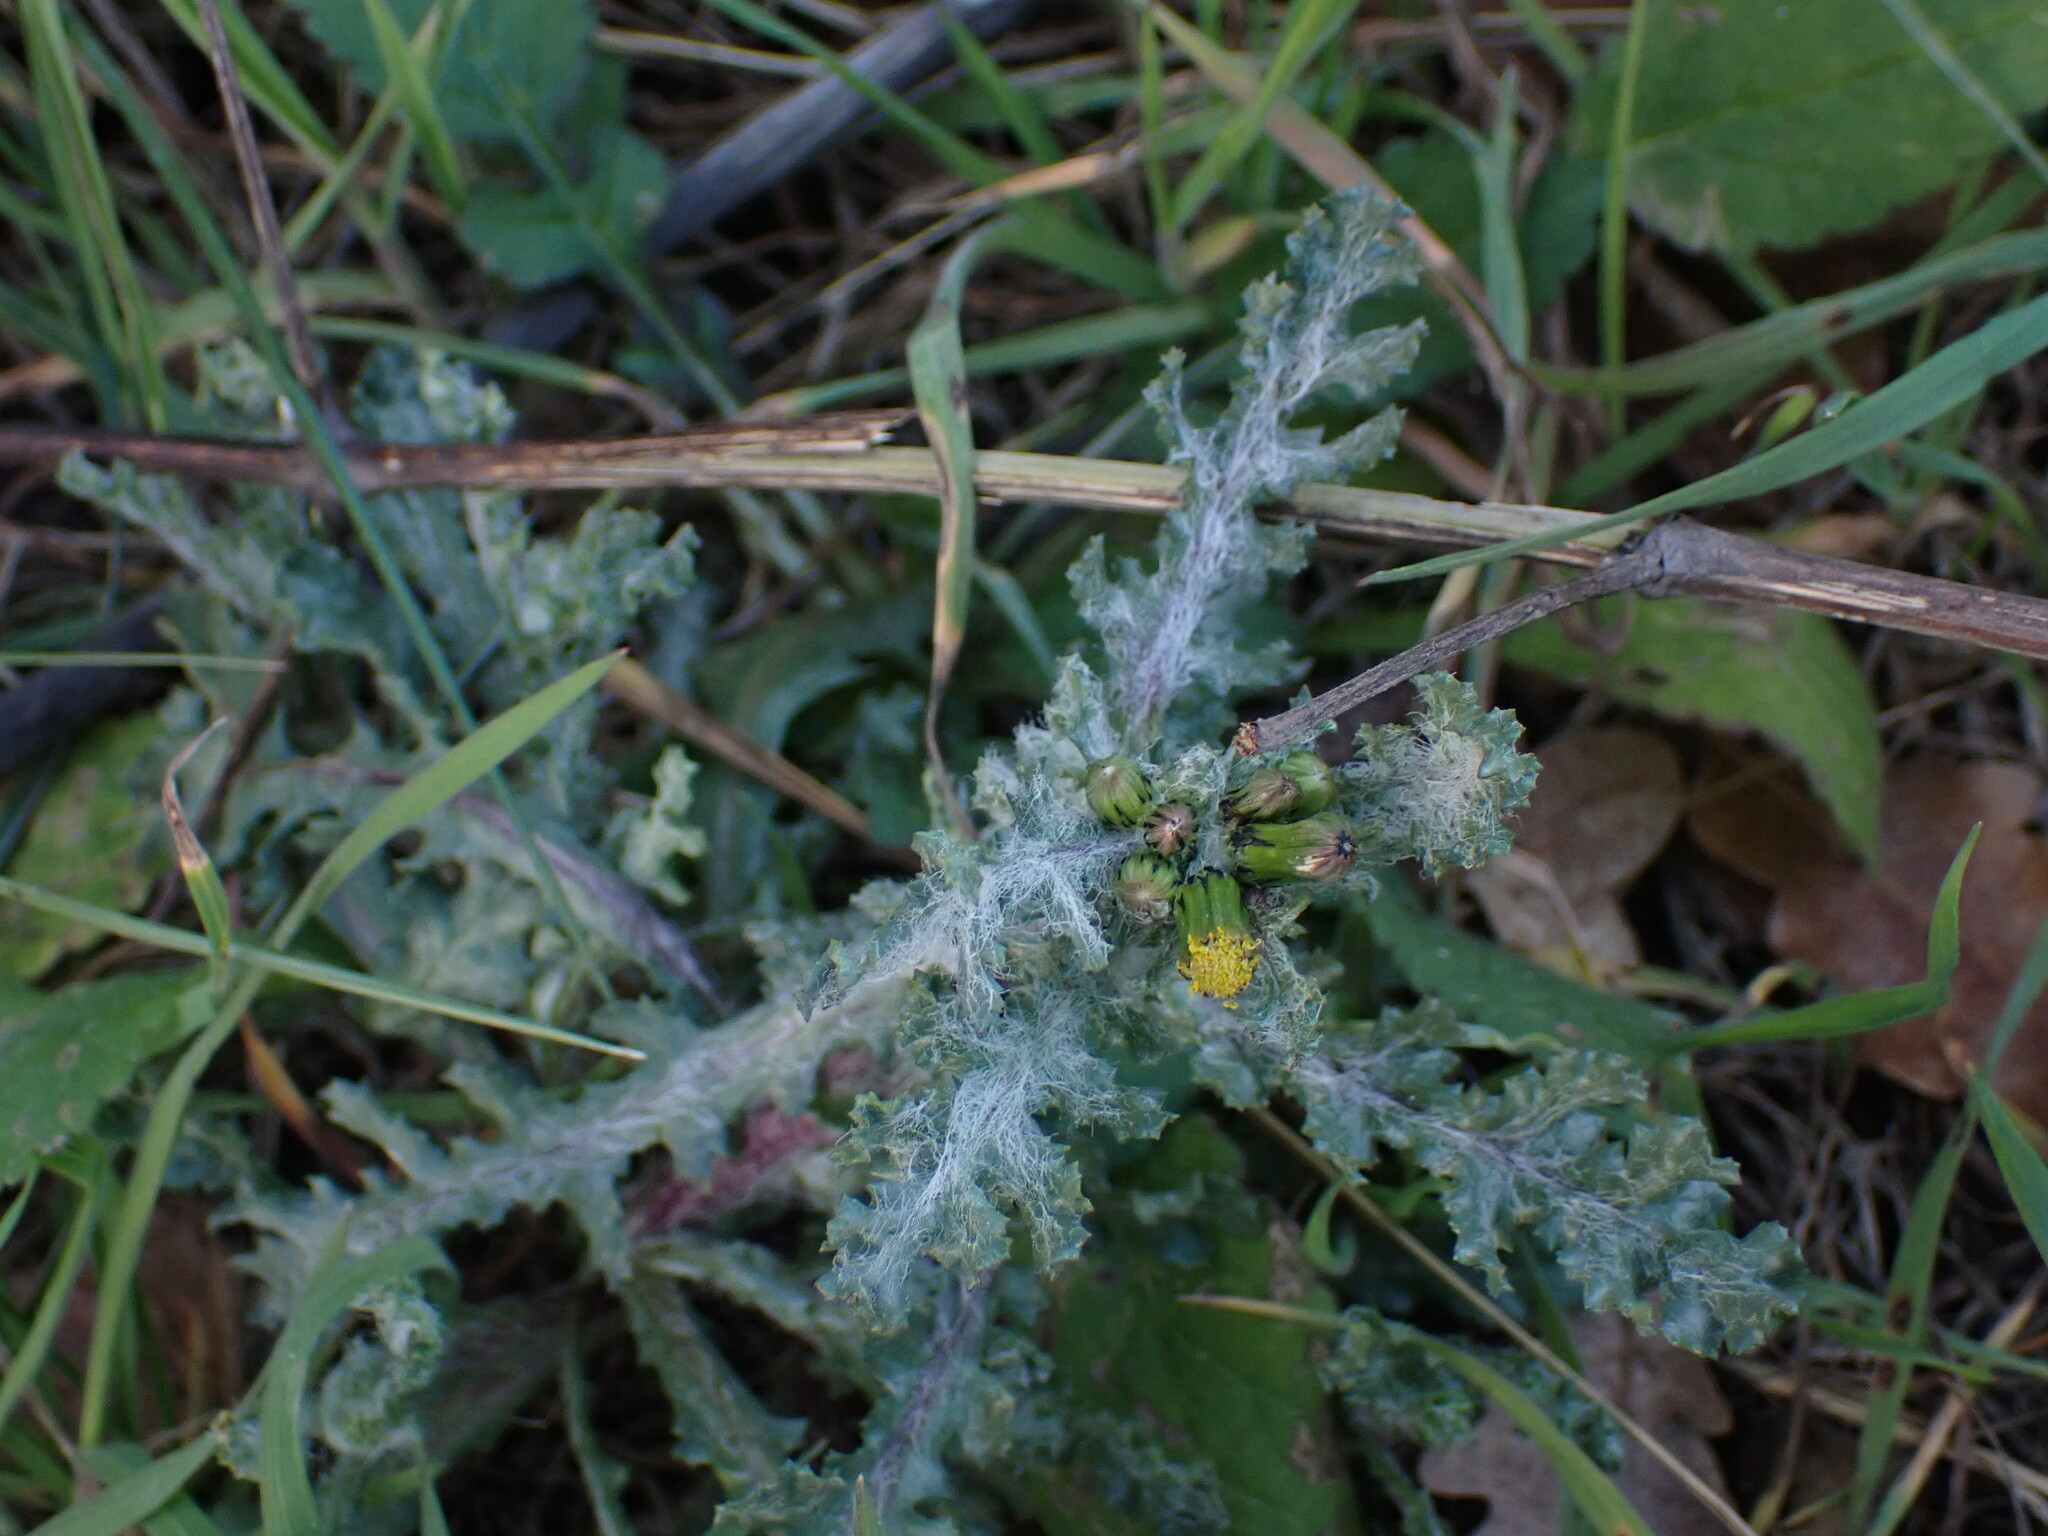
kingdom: Plantae
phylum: Tracheophyta
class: Magnoliopsida
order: Asterales
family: Asteraceae
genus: Senecio
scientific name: Senecio vulgaris
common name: Old-man-in-the-spring
